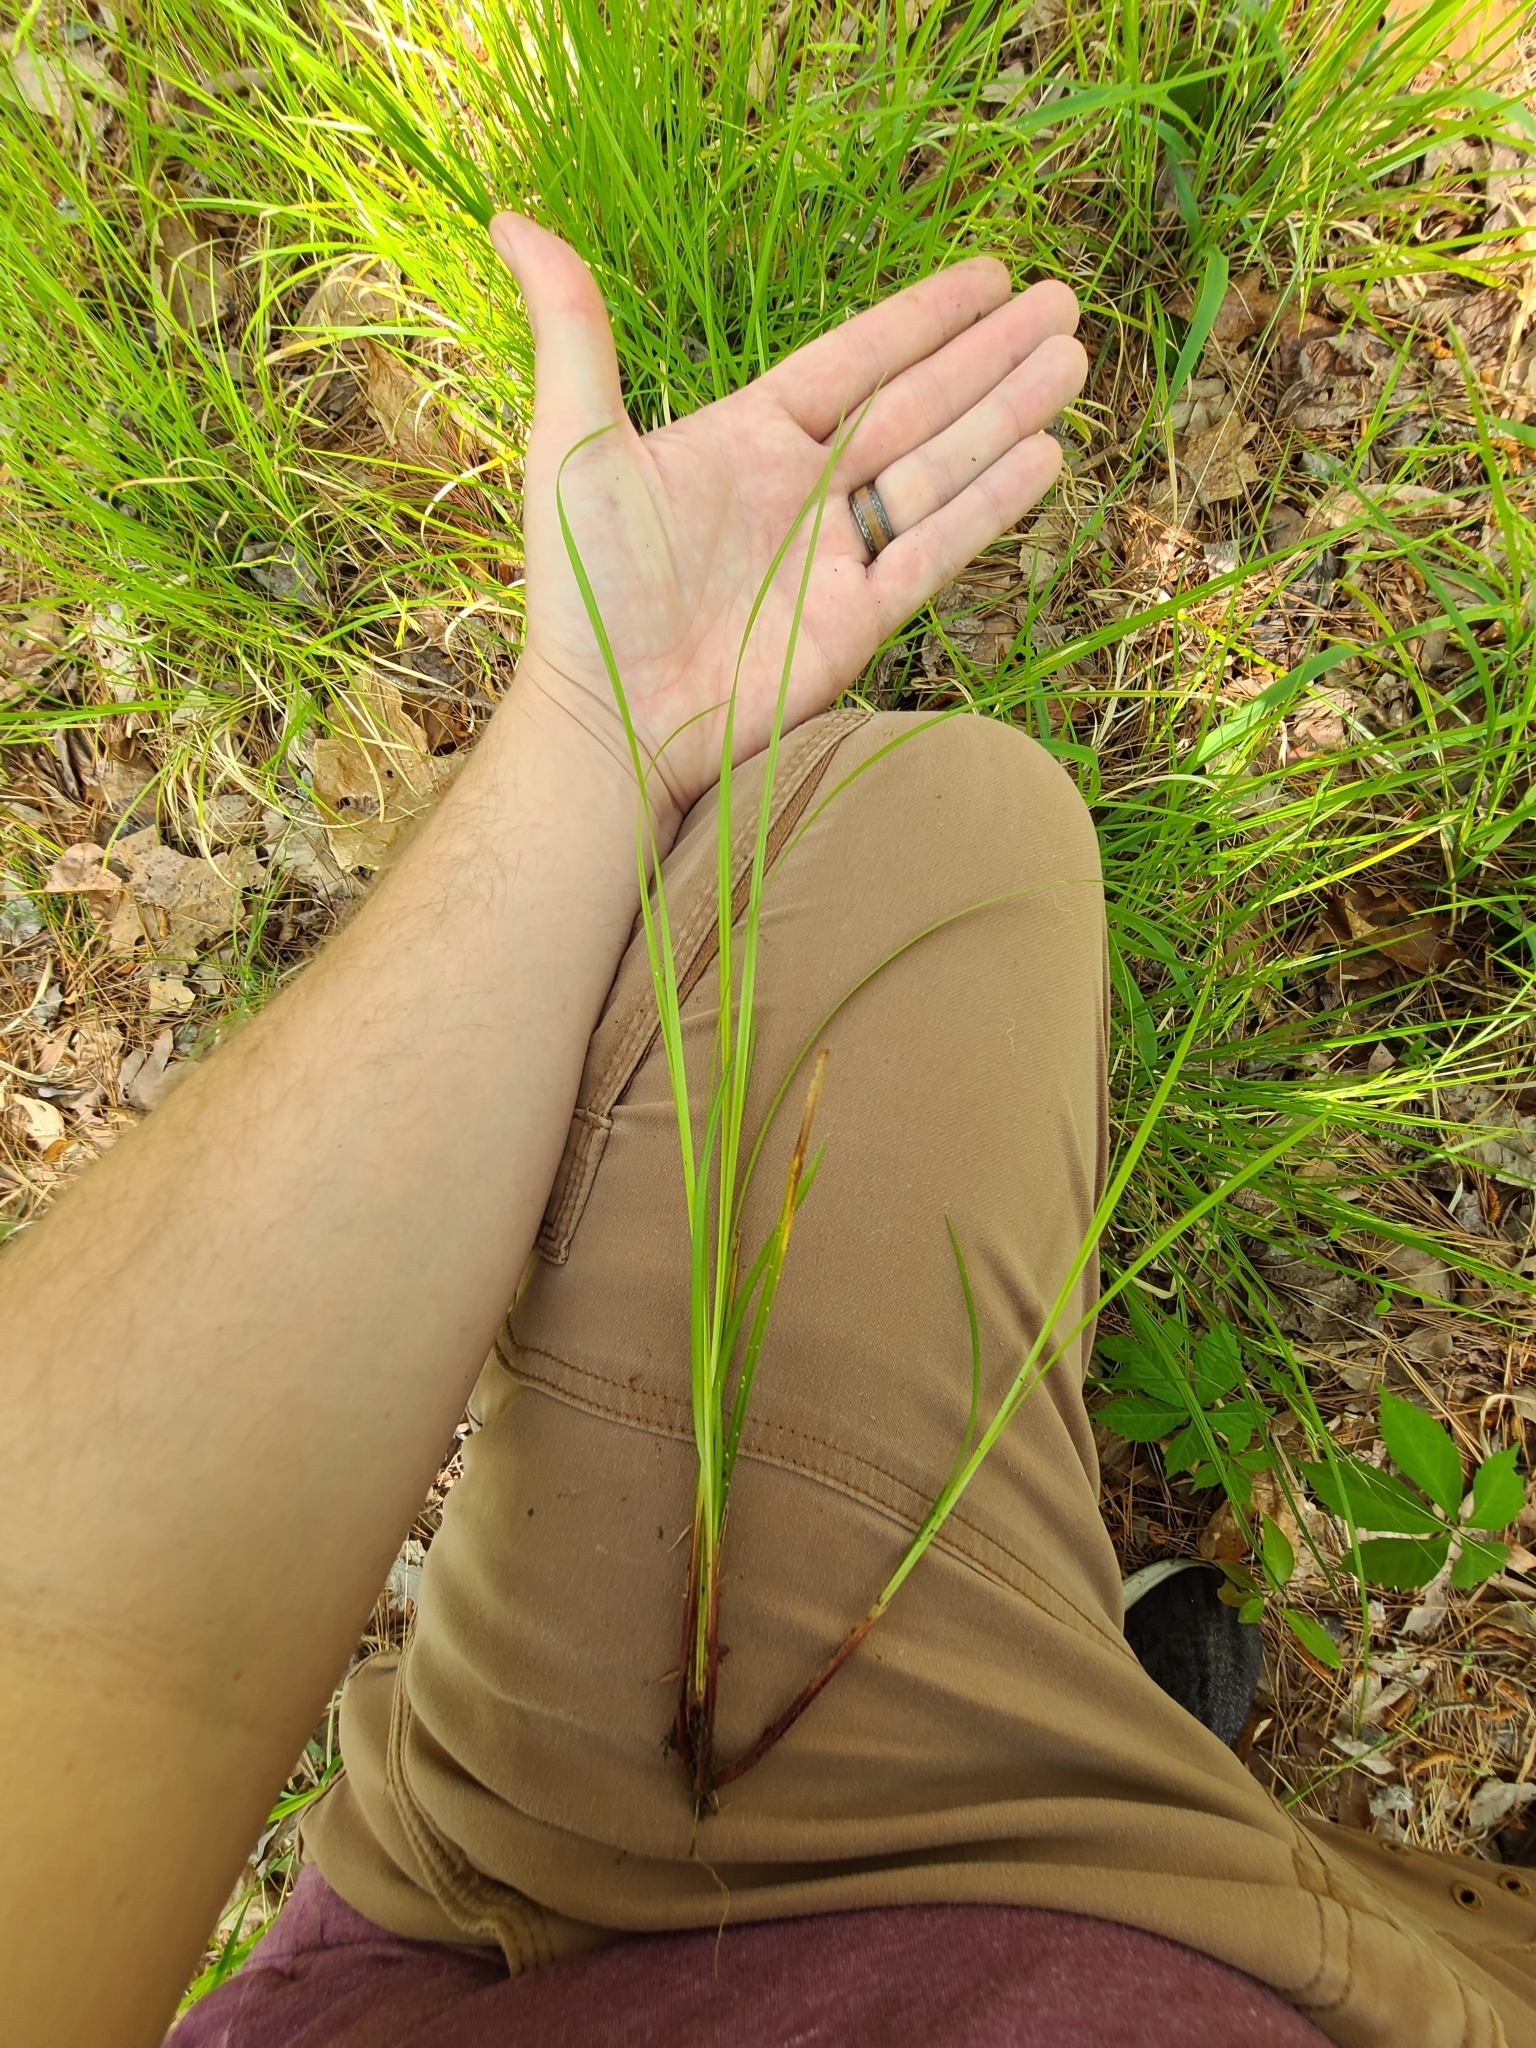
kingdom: Plantae
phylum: Tracheophyta
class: Liliopsida
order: Poales
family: Cyperaceae
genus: Carex
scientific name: Carex debilis
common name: White-edge sedge
